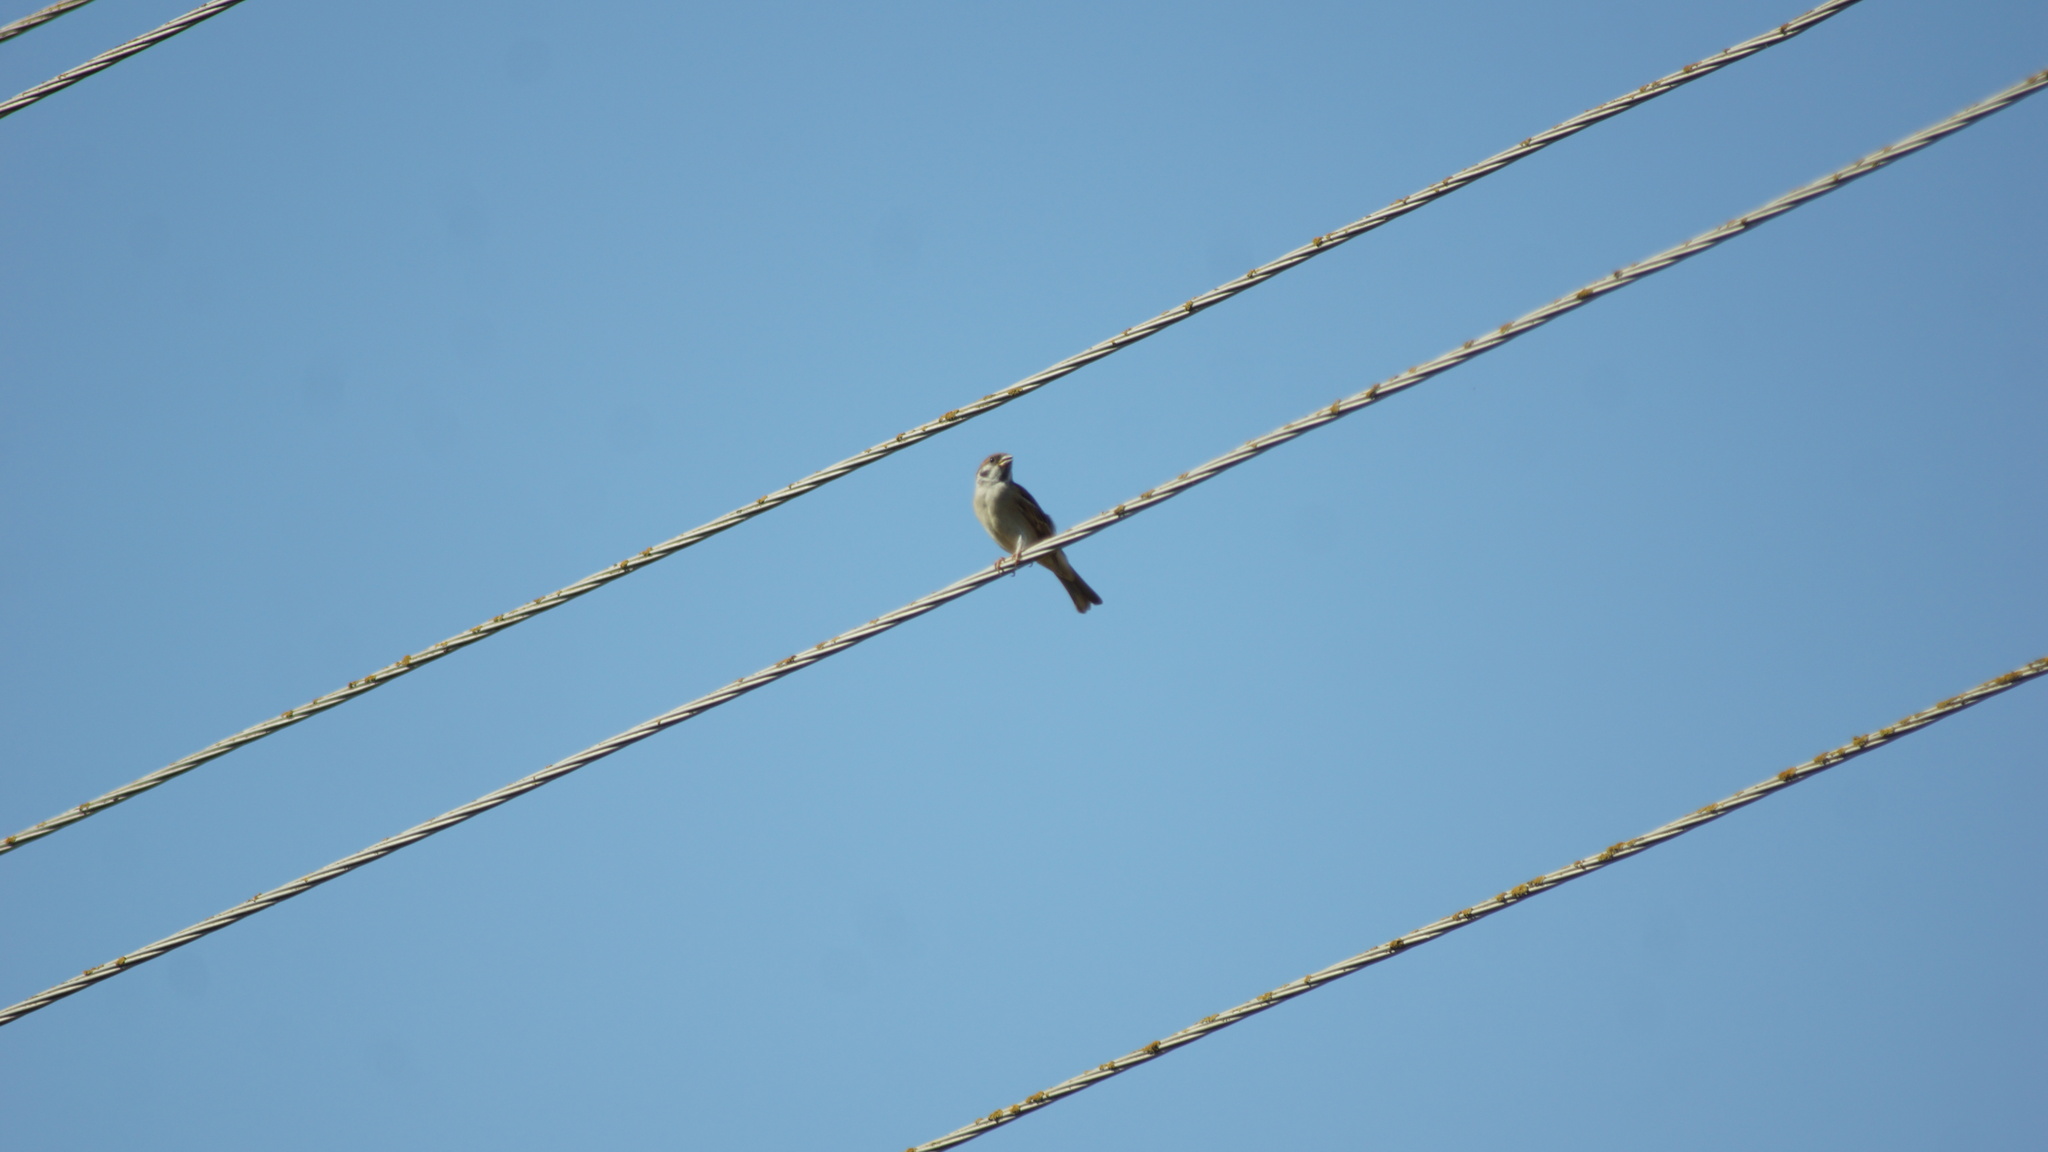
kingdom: Animalia
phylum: Chordata
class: Aves
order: Passeriformes
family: Passeridae
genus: Passer
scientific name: Passer montanus
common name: Eurasian tree sparrow
